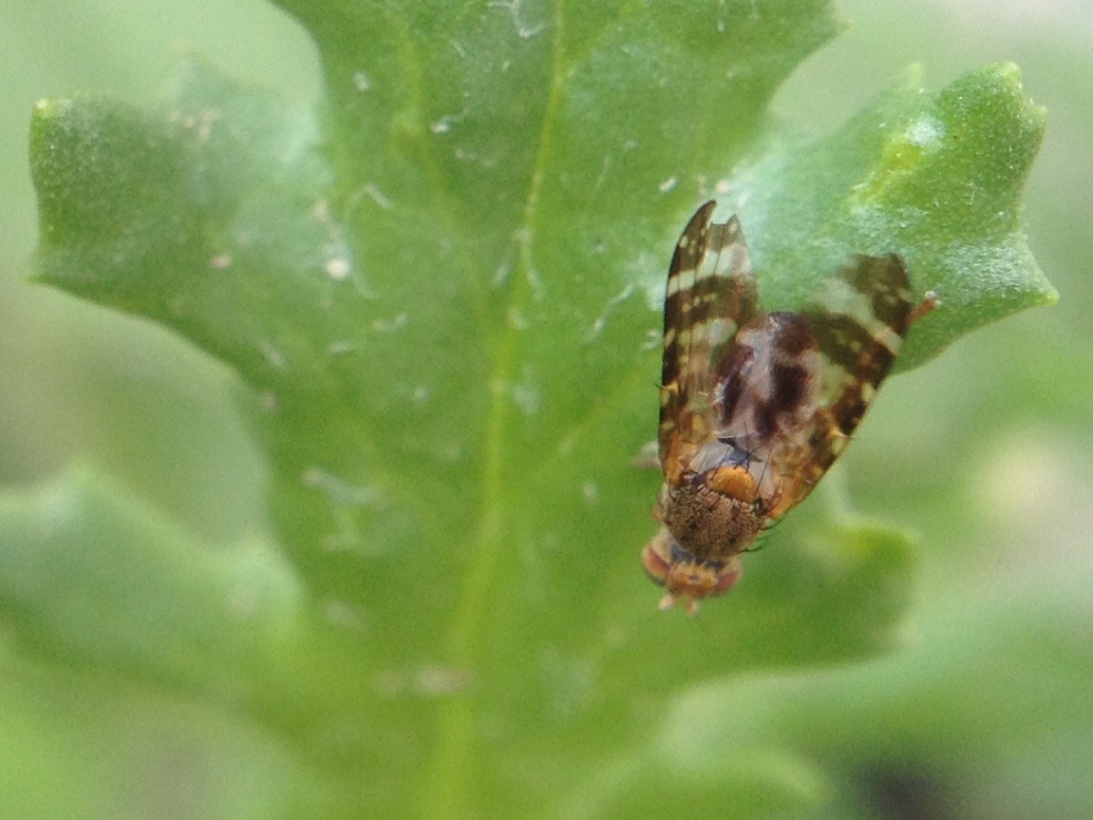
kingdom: Animalia
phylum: Arthropoda
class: Insecta
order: Diptera
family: Tephritidae
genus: Sphenella
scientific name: Sphenella
